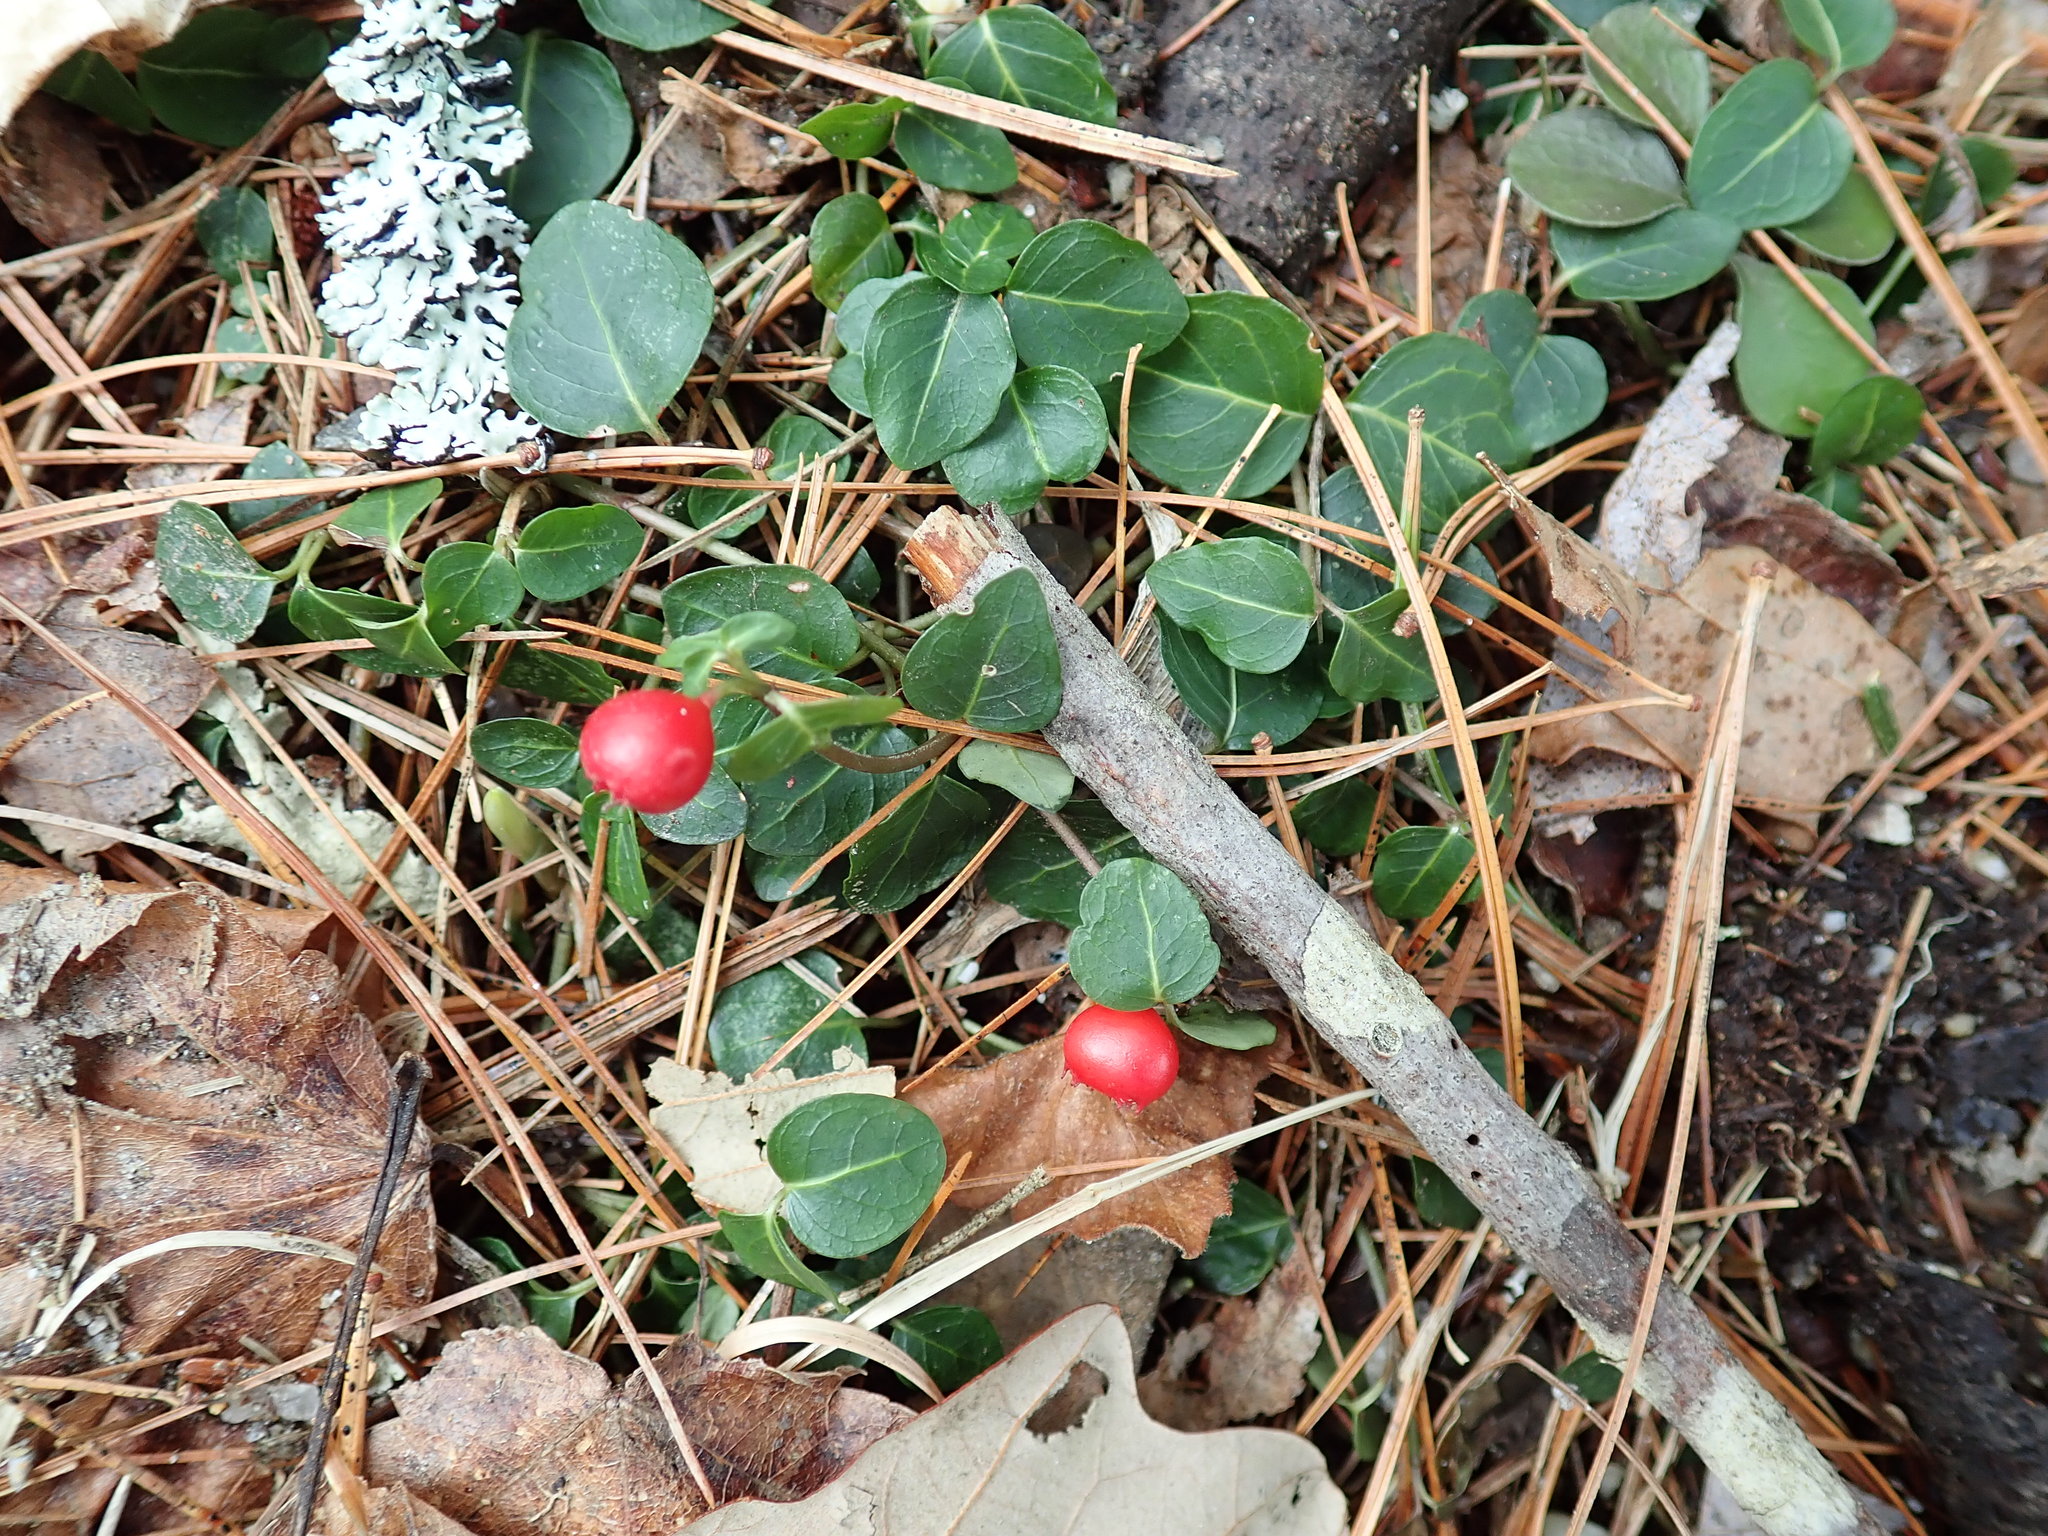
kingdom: Plantae
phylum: Tracheophyta
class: Magnoliopsida
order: Gentianales
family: Rubiaceae
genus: Mitchella
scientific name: Mitchella repens
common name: Partridge-berry
